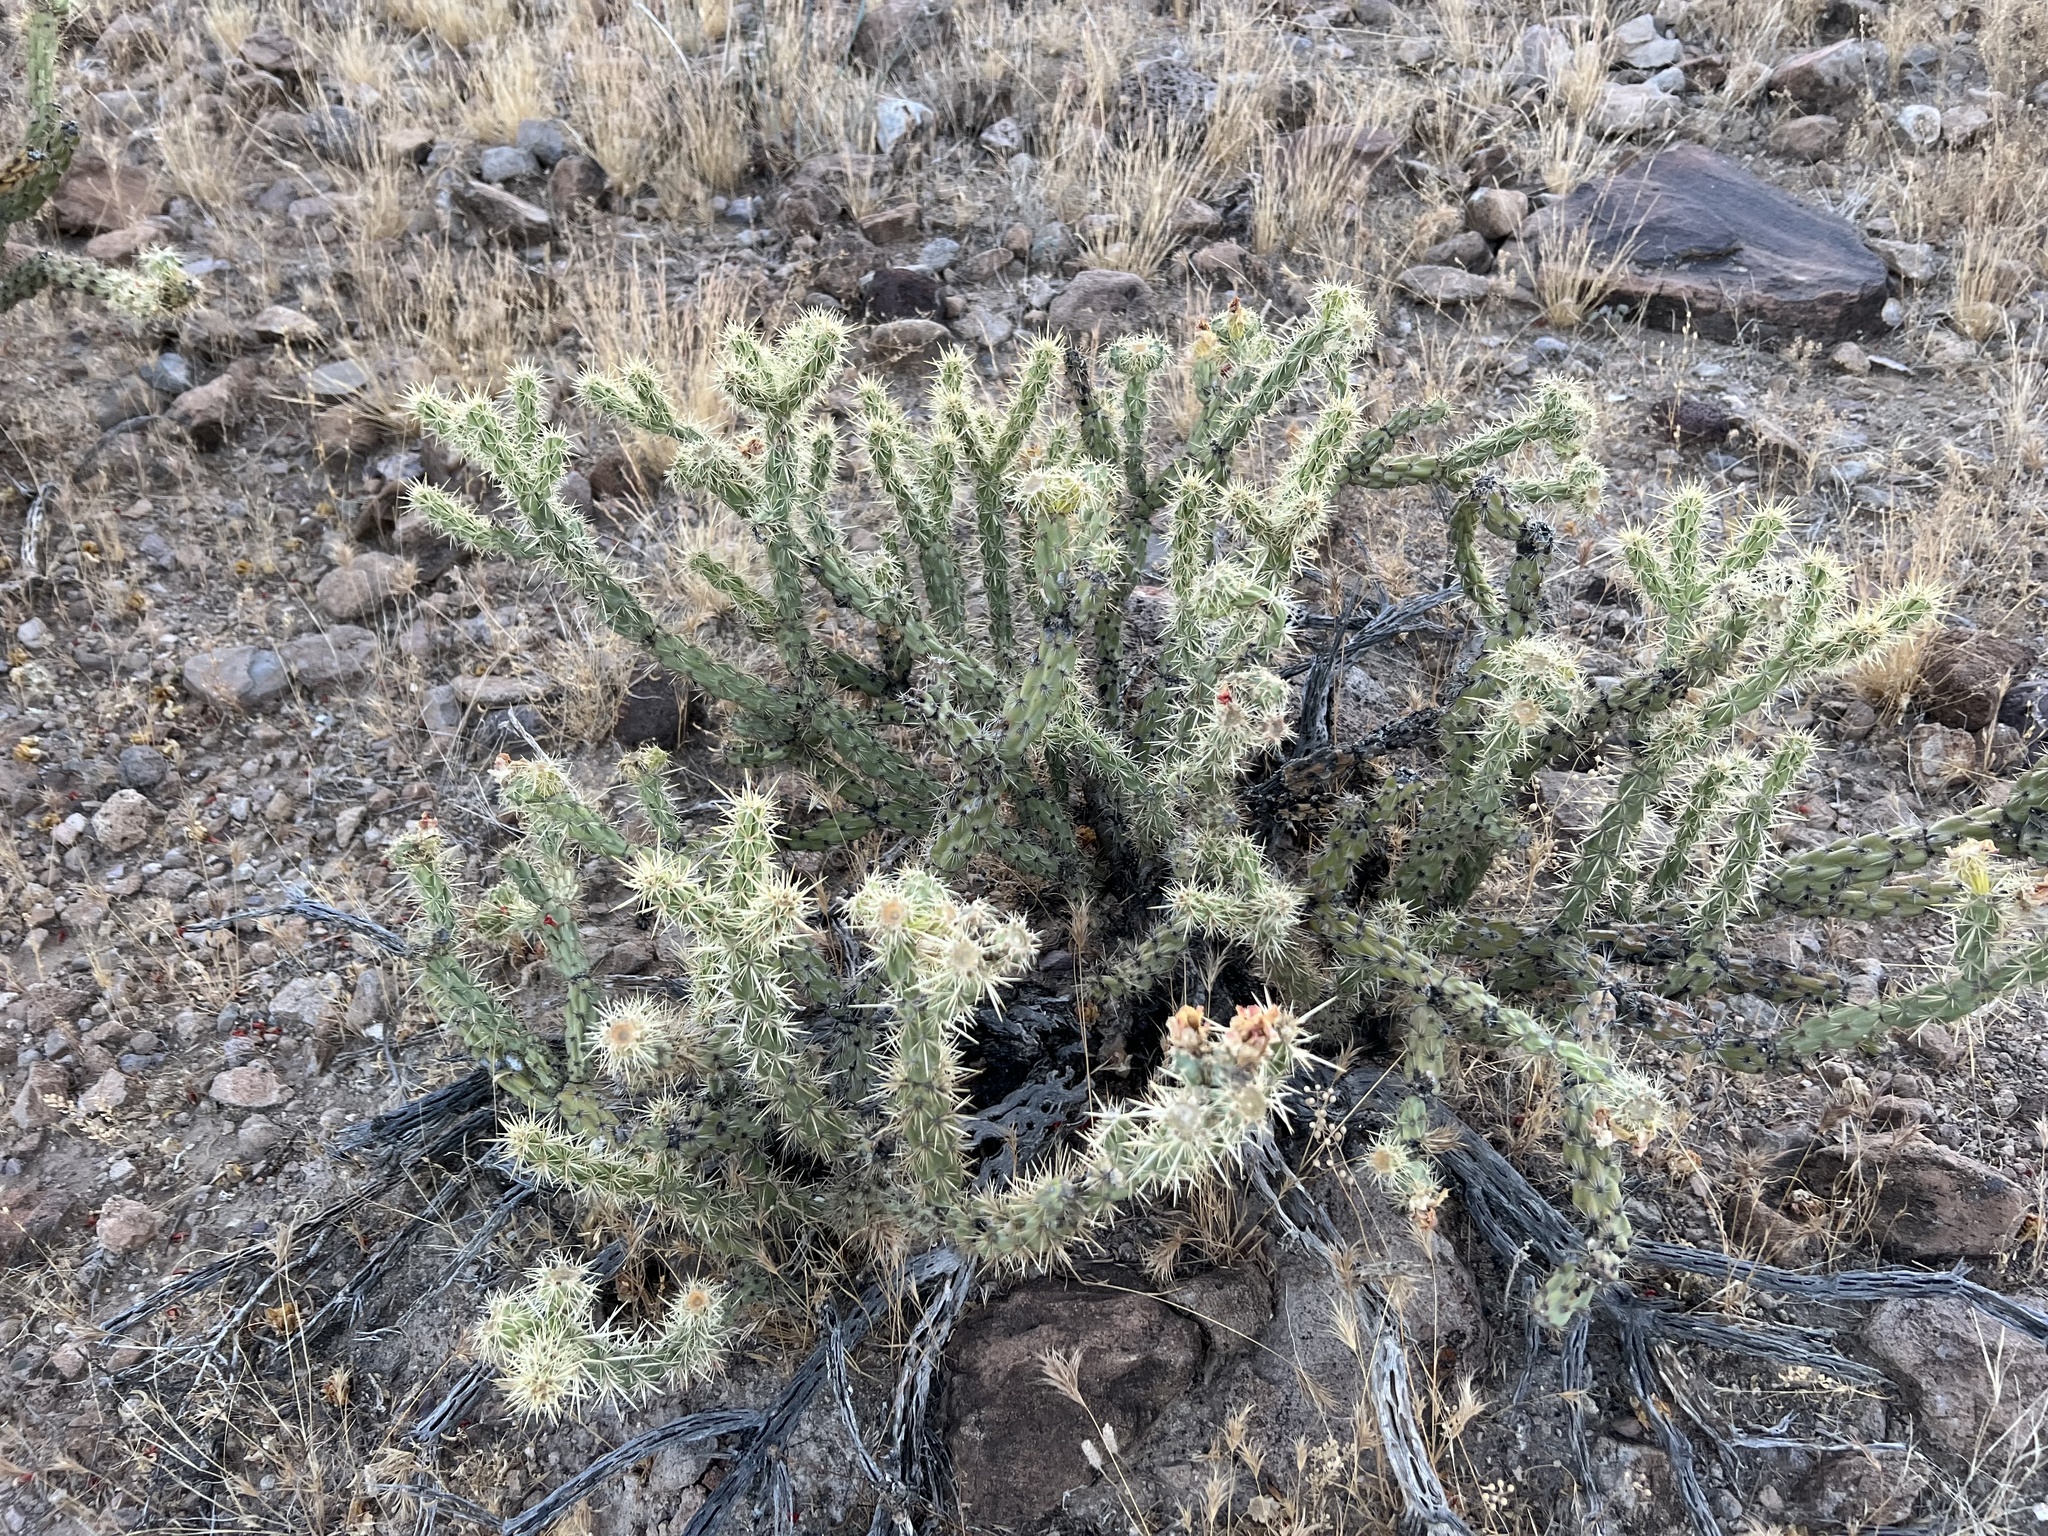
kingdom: Plantae
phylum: Tracheophyta
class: Magnoliopsida
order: Caryophyllales
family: Cactaceae
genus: Cylindropuntia
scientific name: Cylindropuntia acanthocarpa
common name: Buckhorn cholla
